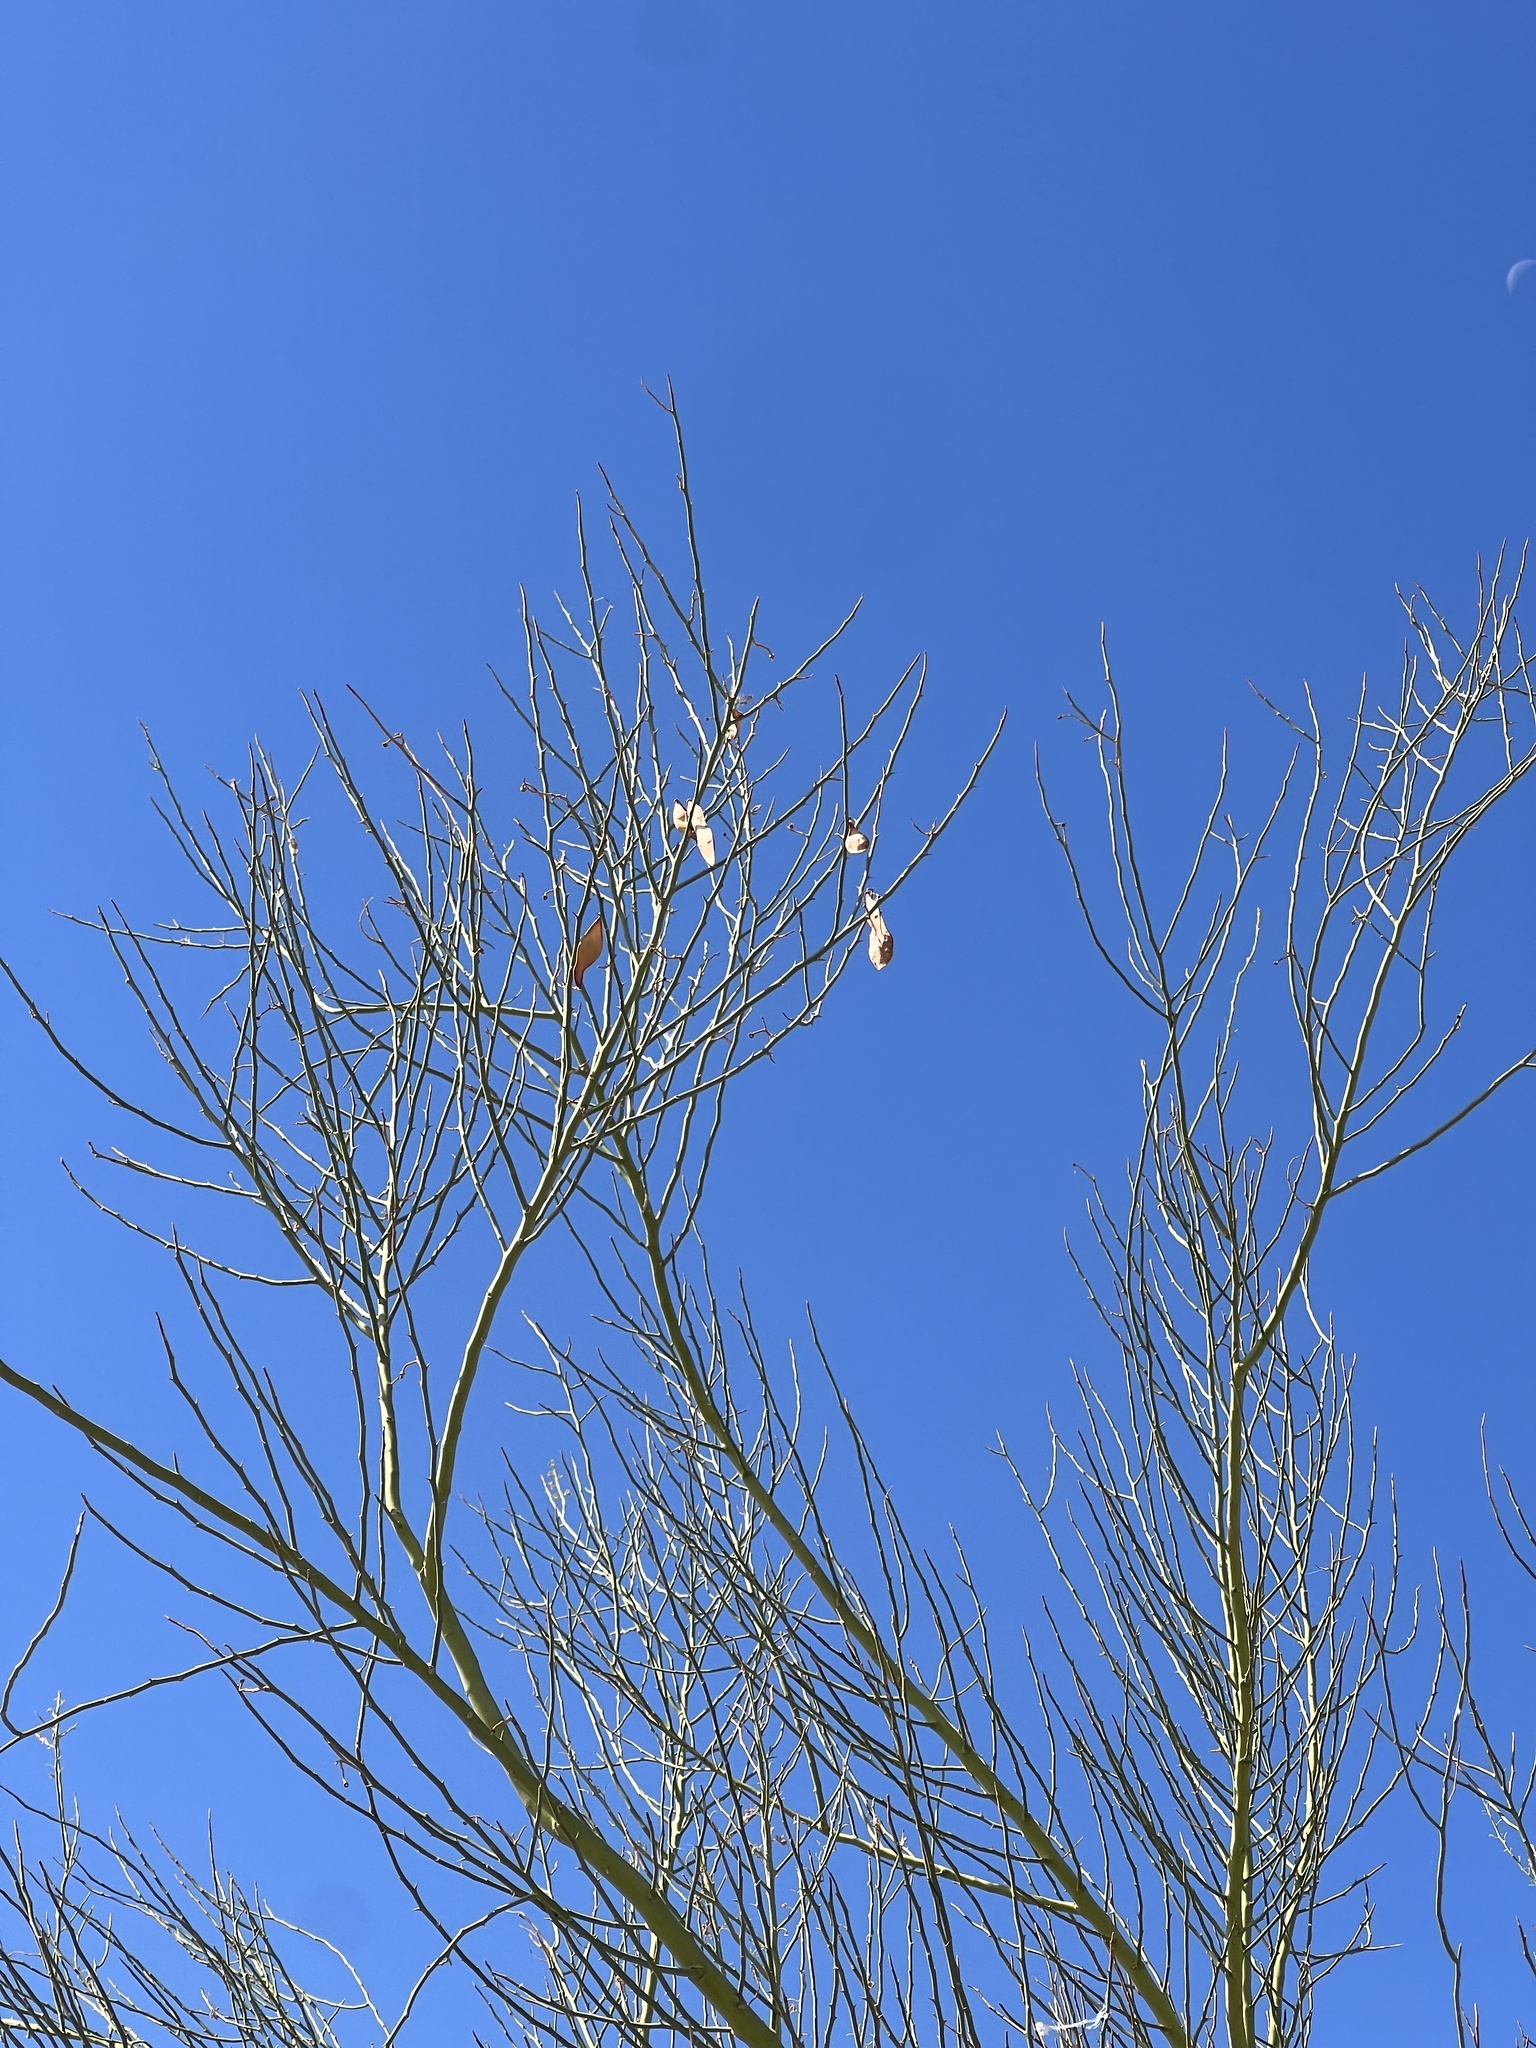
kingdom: Plantae
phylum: Tracheophyta
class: Magnoliopsida
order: Fabales
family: Fabaceae
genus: Parkinsonia
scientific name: Parkinsonia florida
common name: Blue paloverde
